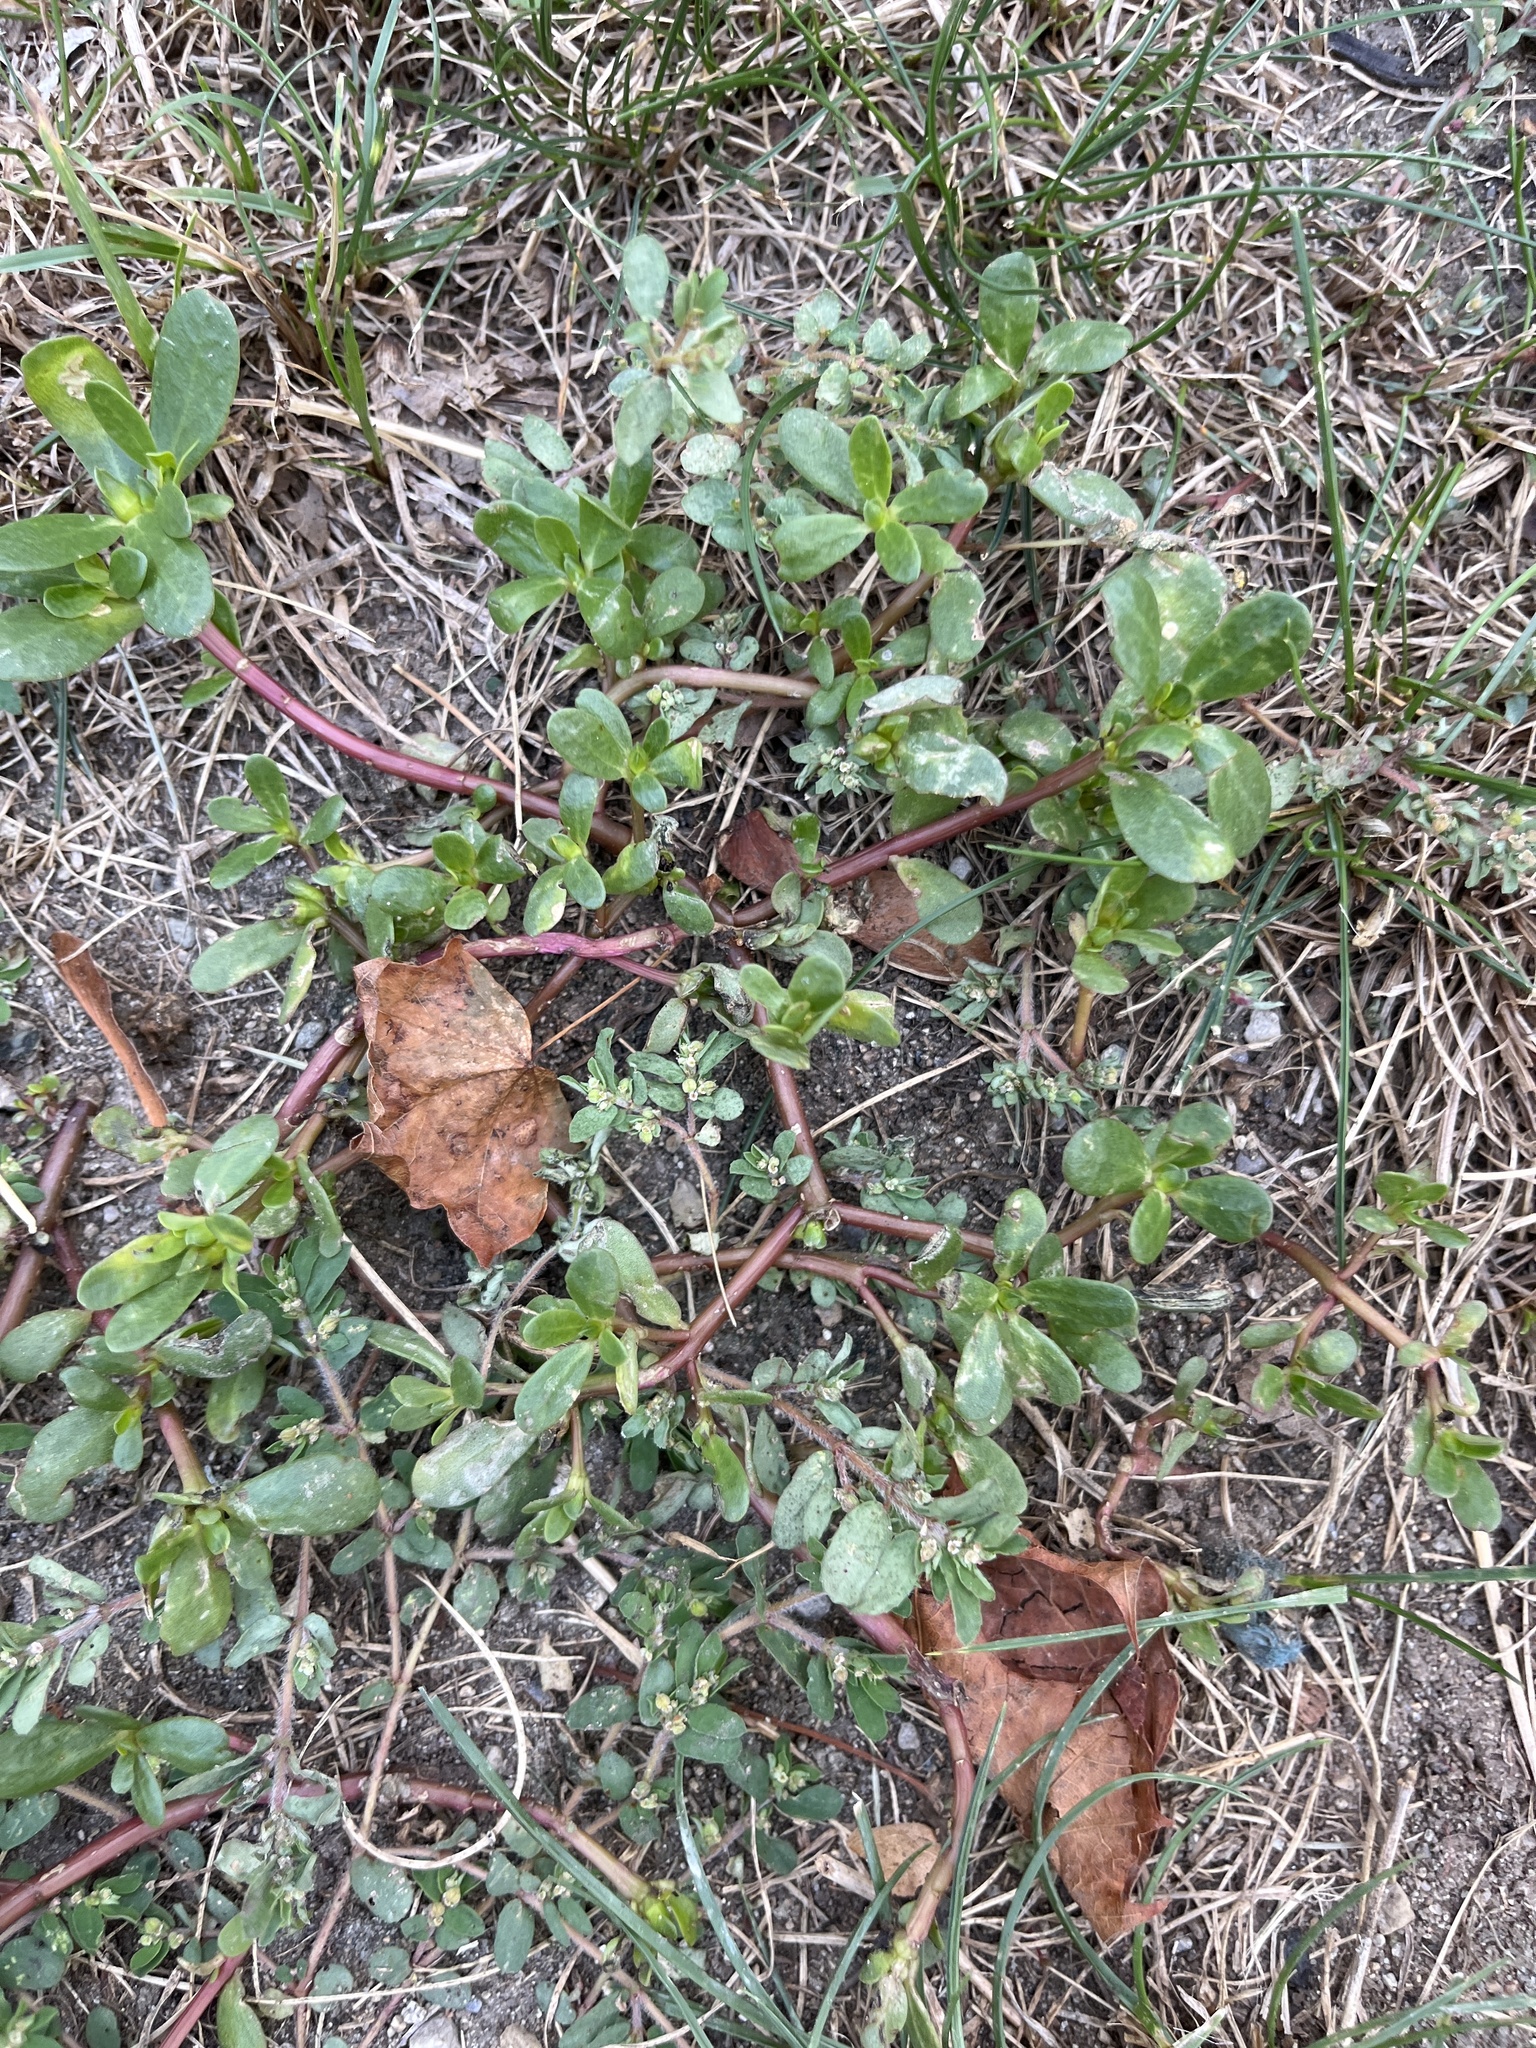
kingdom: Plantae
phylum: Tracheophyta
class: Magnoliopsida
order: Caryophyllales
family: Portulacaceae
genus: Portulaca
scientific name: Portulaca oleracea
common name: Common purslane
